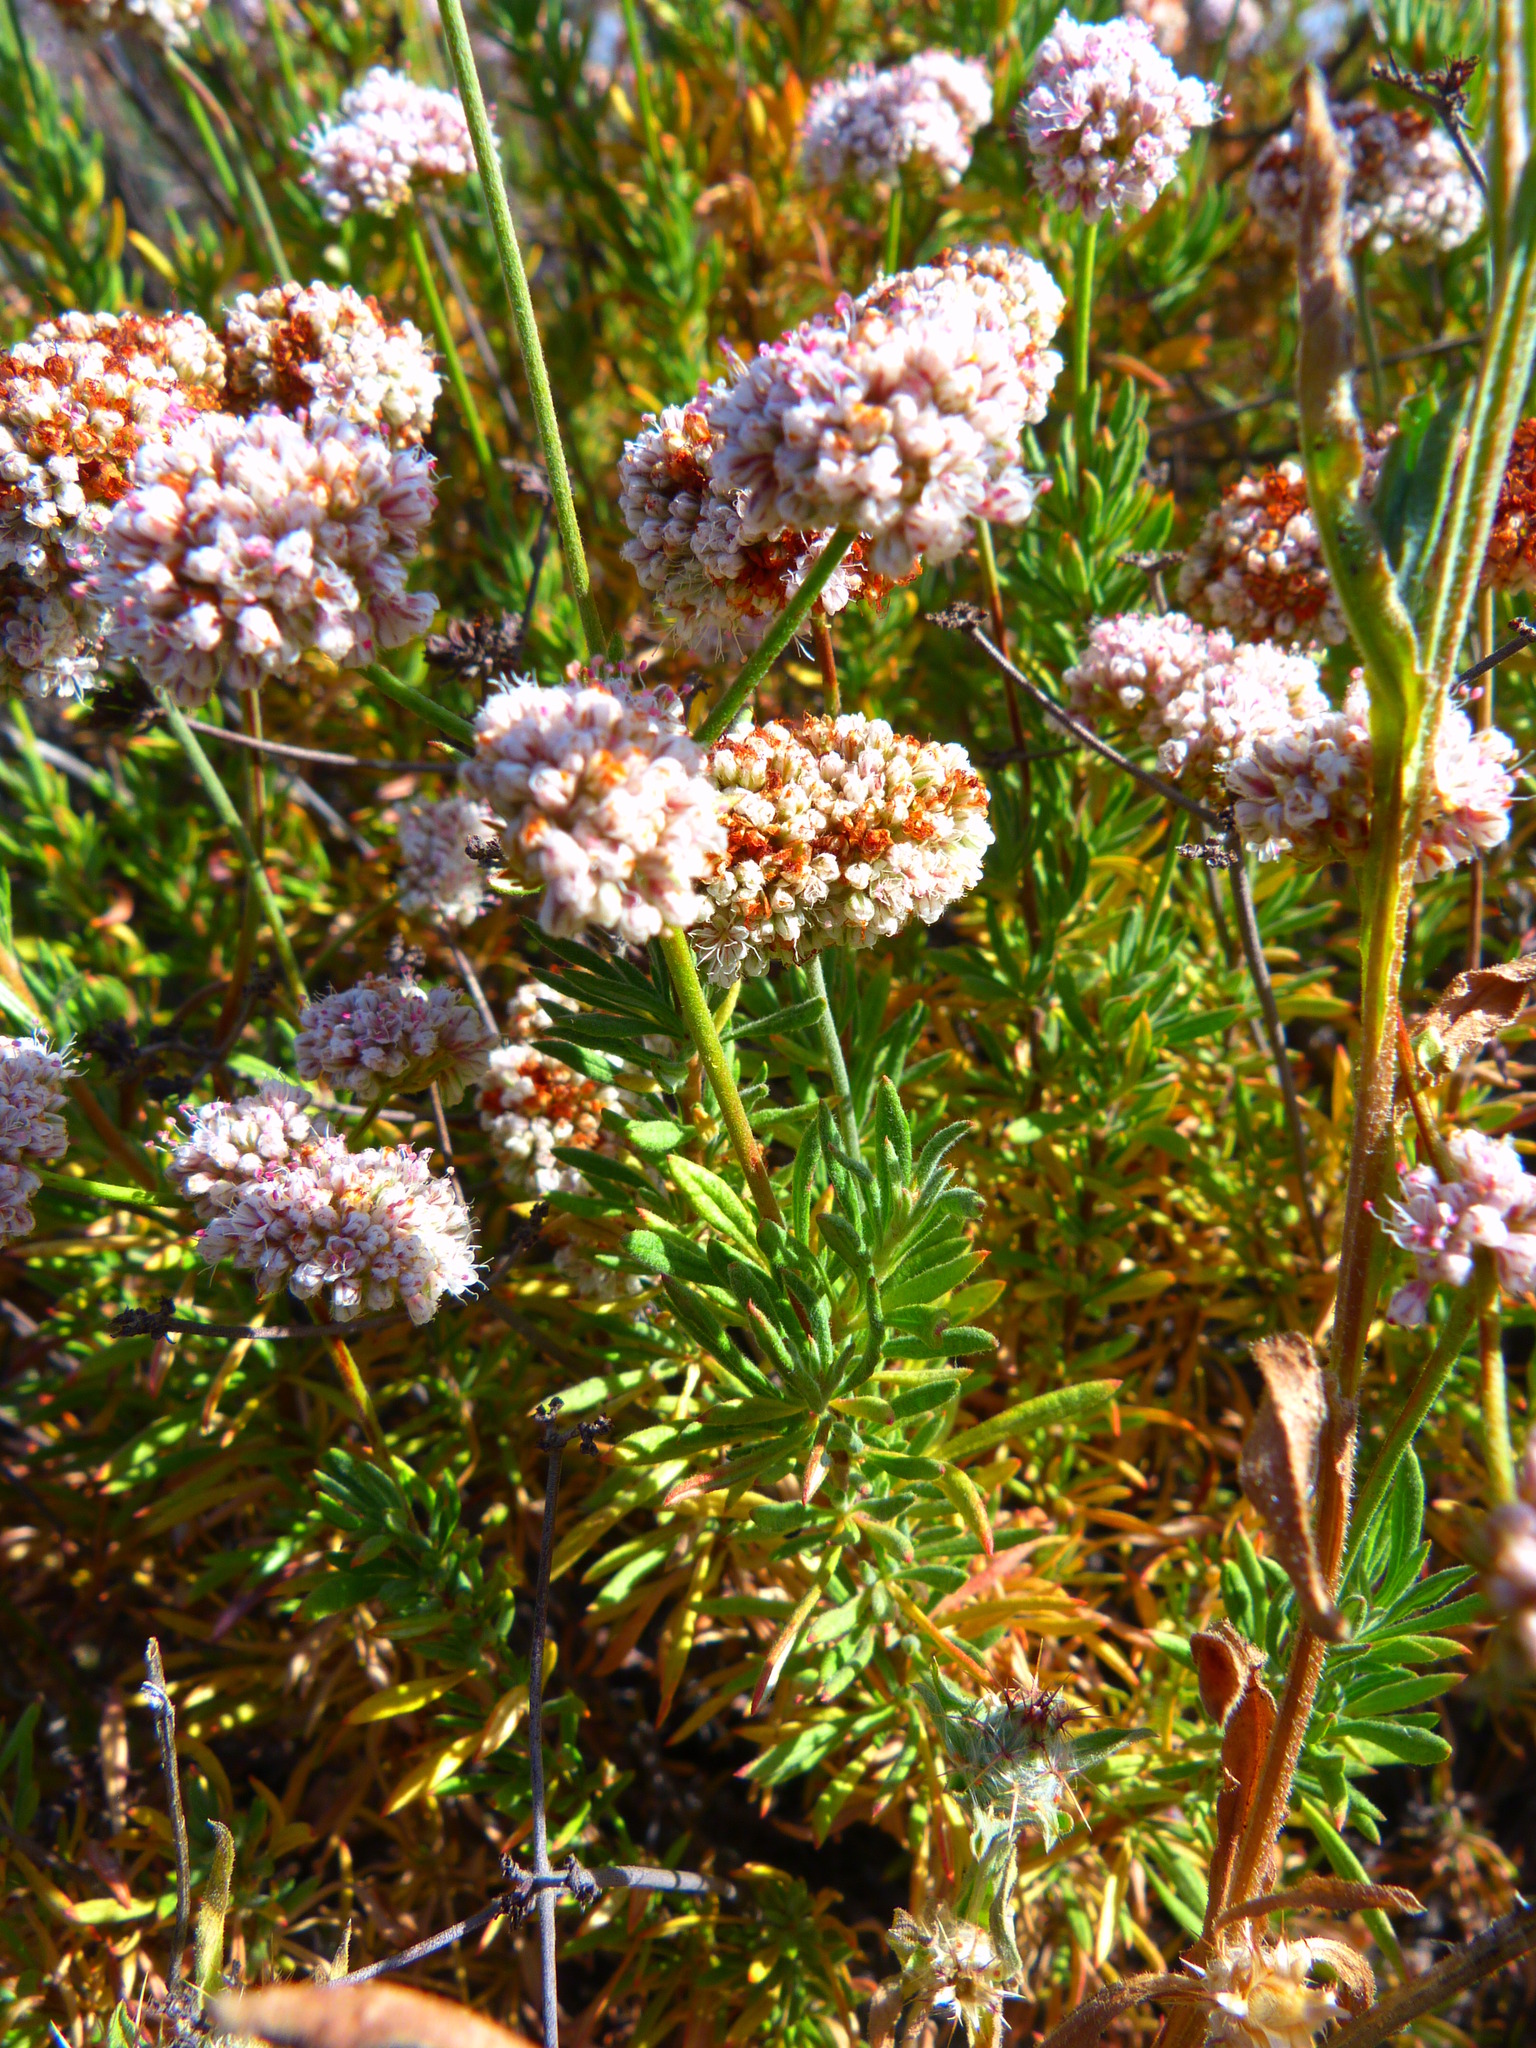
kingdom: Plantae
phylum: Tracheophyta
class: Magnoliopsida
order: Caryophyllales
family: Polygonaceae
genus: Eriogonum
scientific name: Eriogonum fasciculatum
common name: California wild buckwheat
